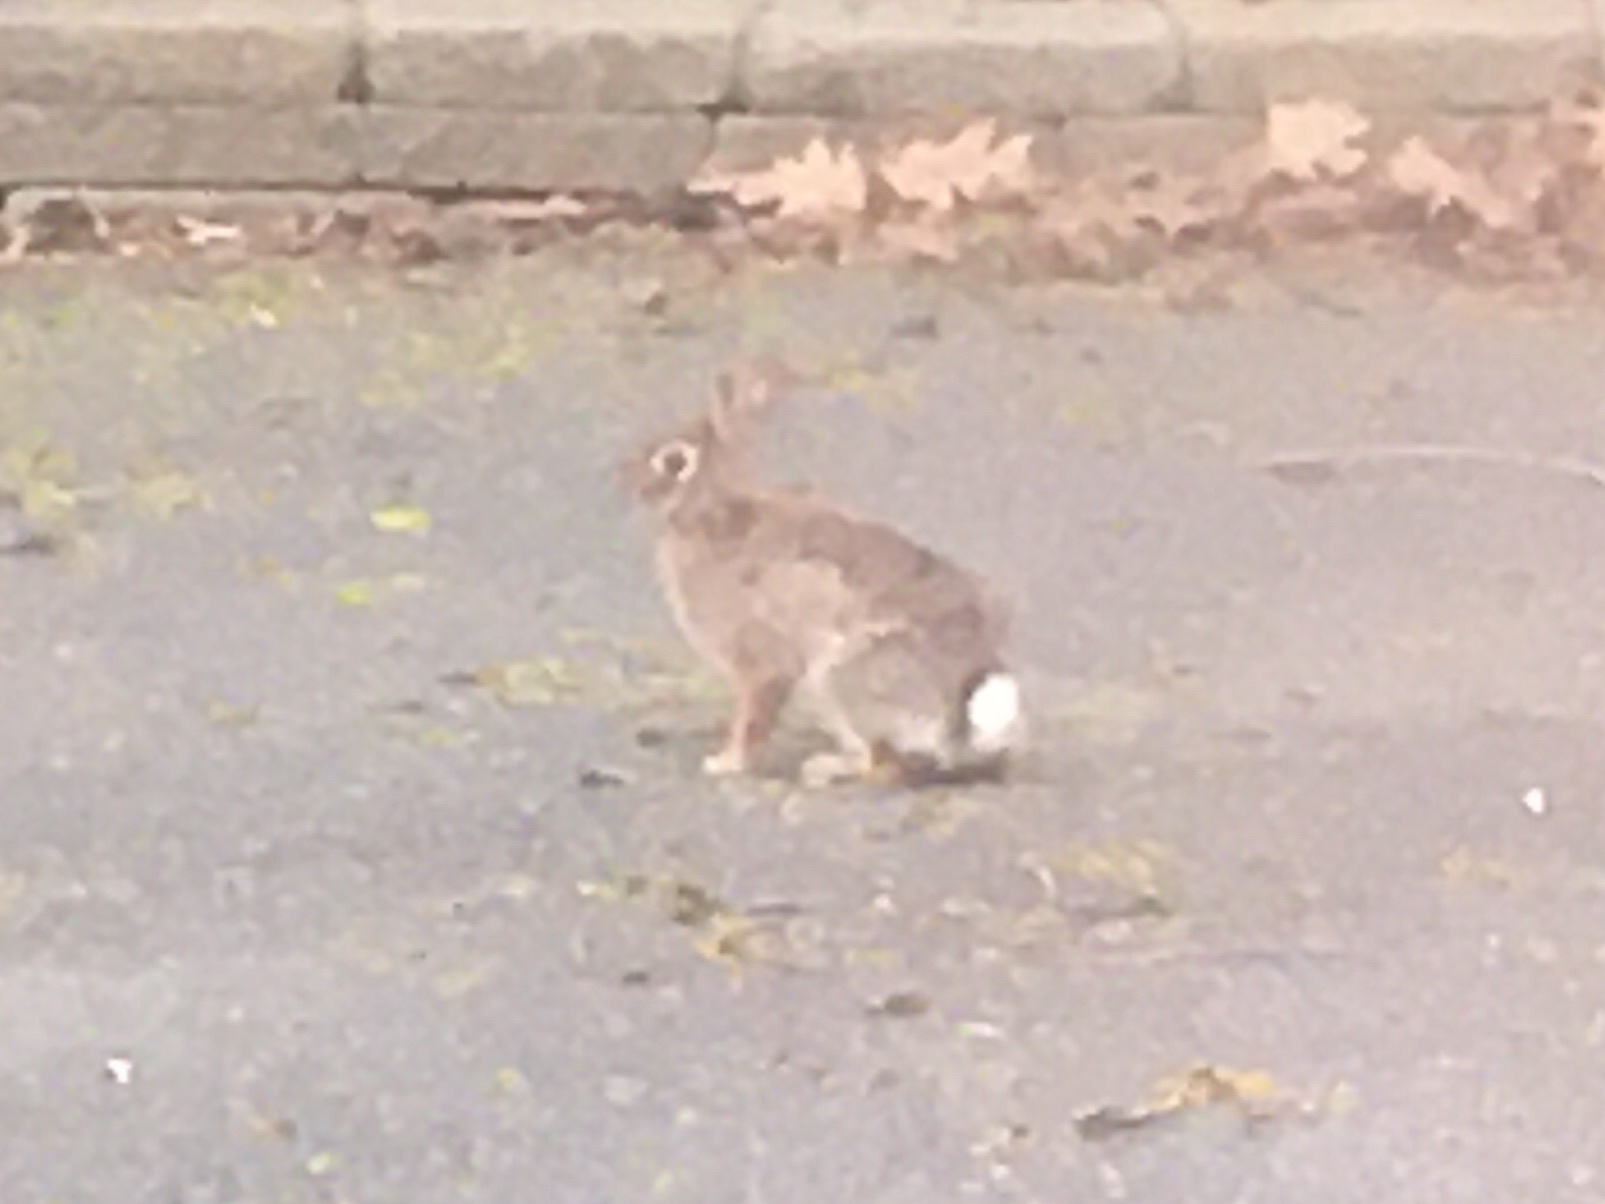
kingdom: Animalia
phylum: Chordata
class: Mammalia
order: Lagomorpha
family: Leporidae
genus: Sylvilagus
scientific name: Sylvilagus floridanus
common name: Eastern cottontail
